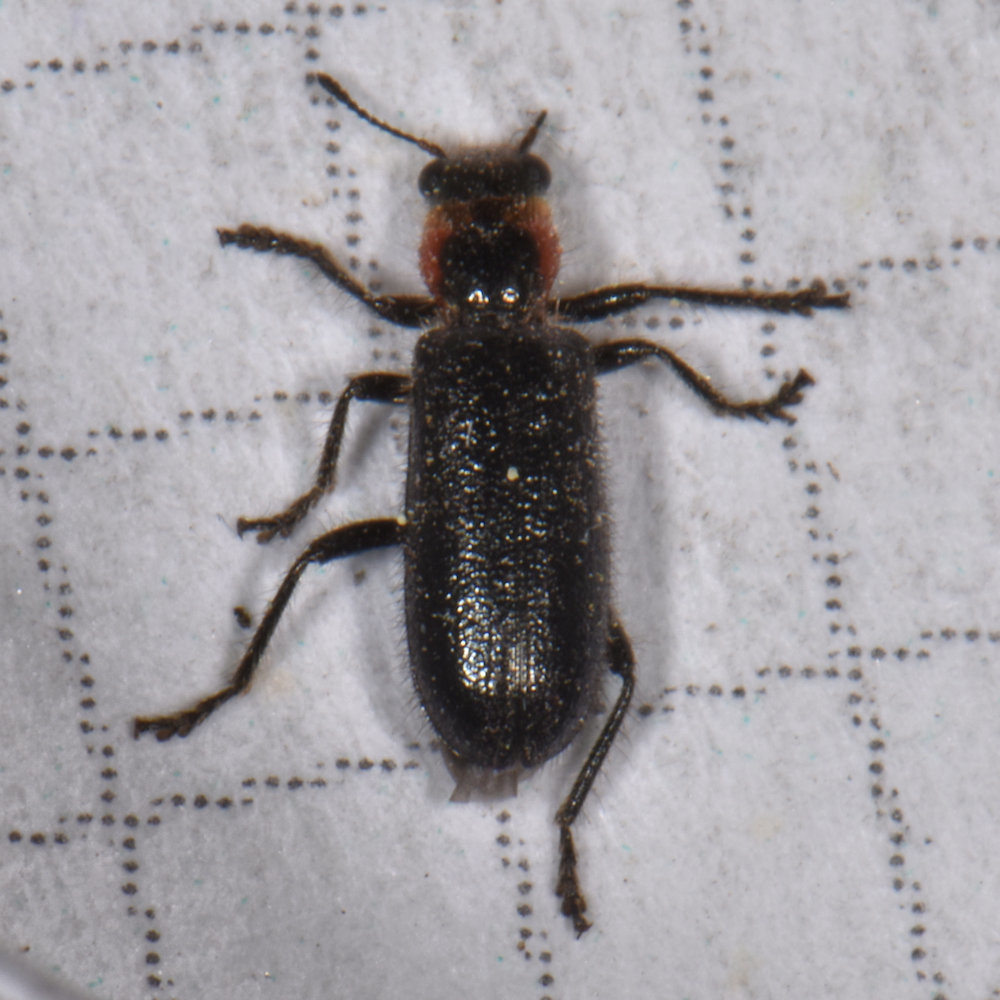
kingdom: Animalia
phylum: Arthropoda
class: Insecta
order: Coleoptera
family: Cleridae
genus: Placopterus
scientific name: Placopterus thoracicus
